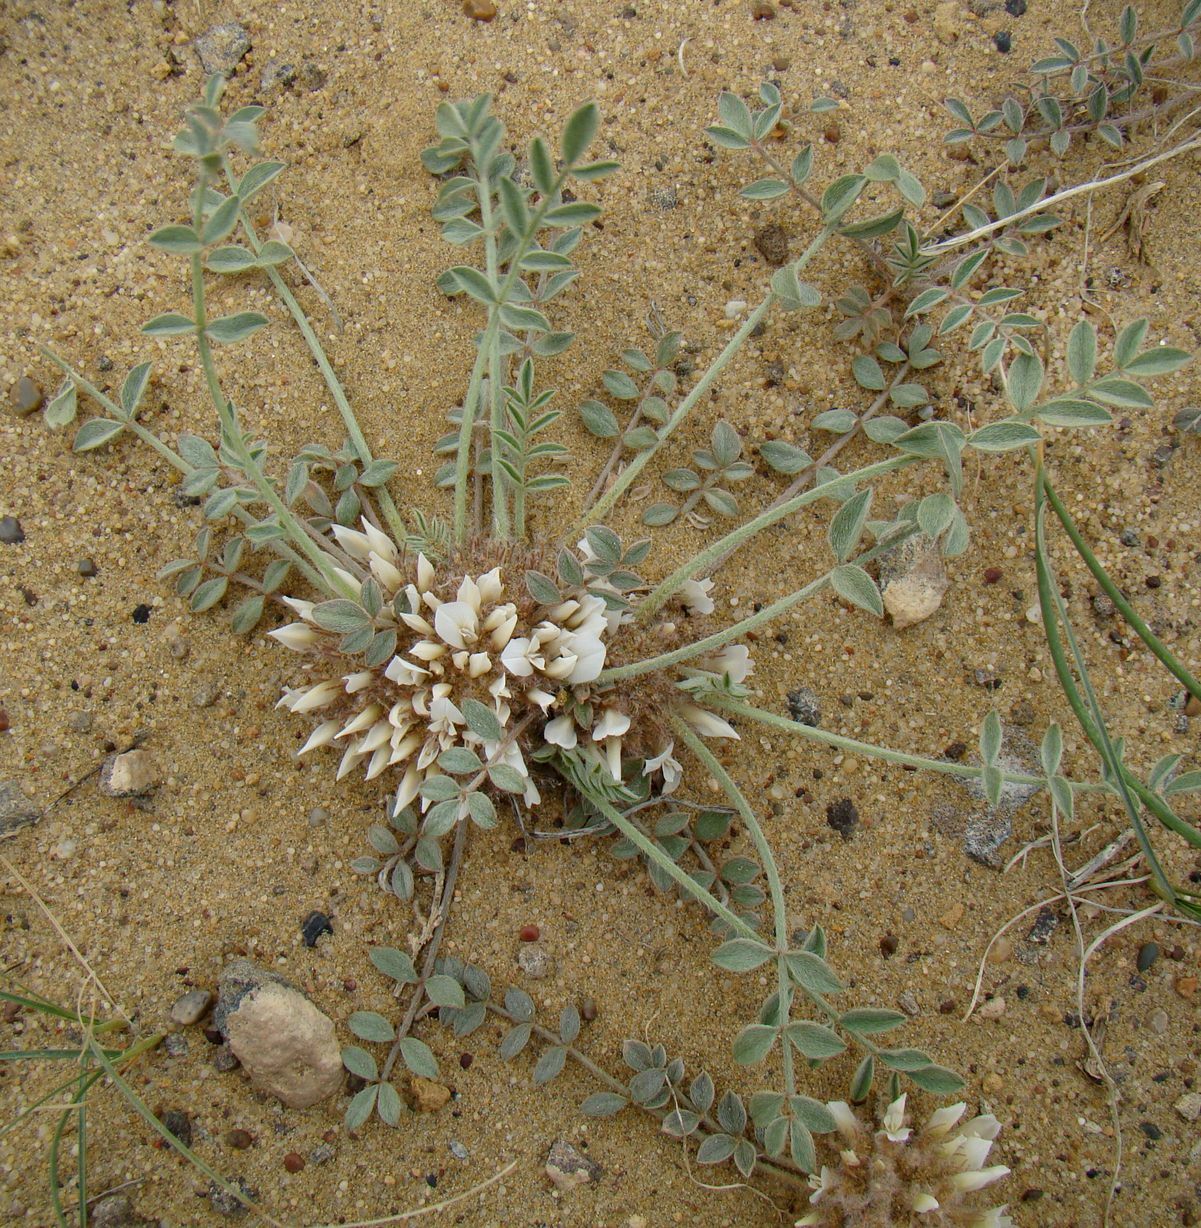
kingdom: Plantae
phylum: Tracheophyta
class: Magnoliopsida
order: Fabales
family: Fabaceae
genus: Astragalus
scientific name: Astragalus scabrisetus
